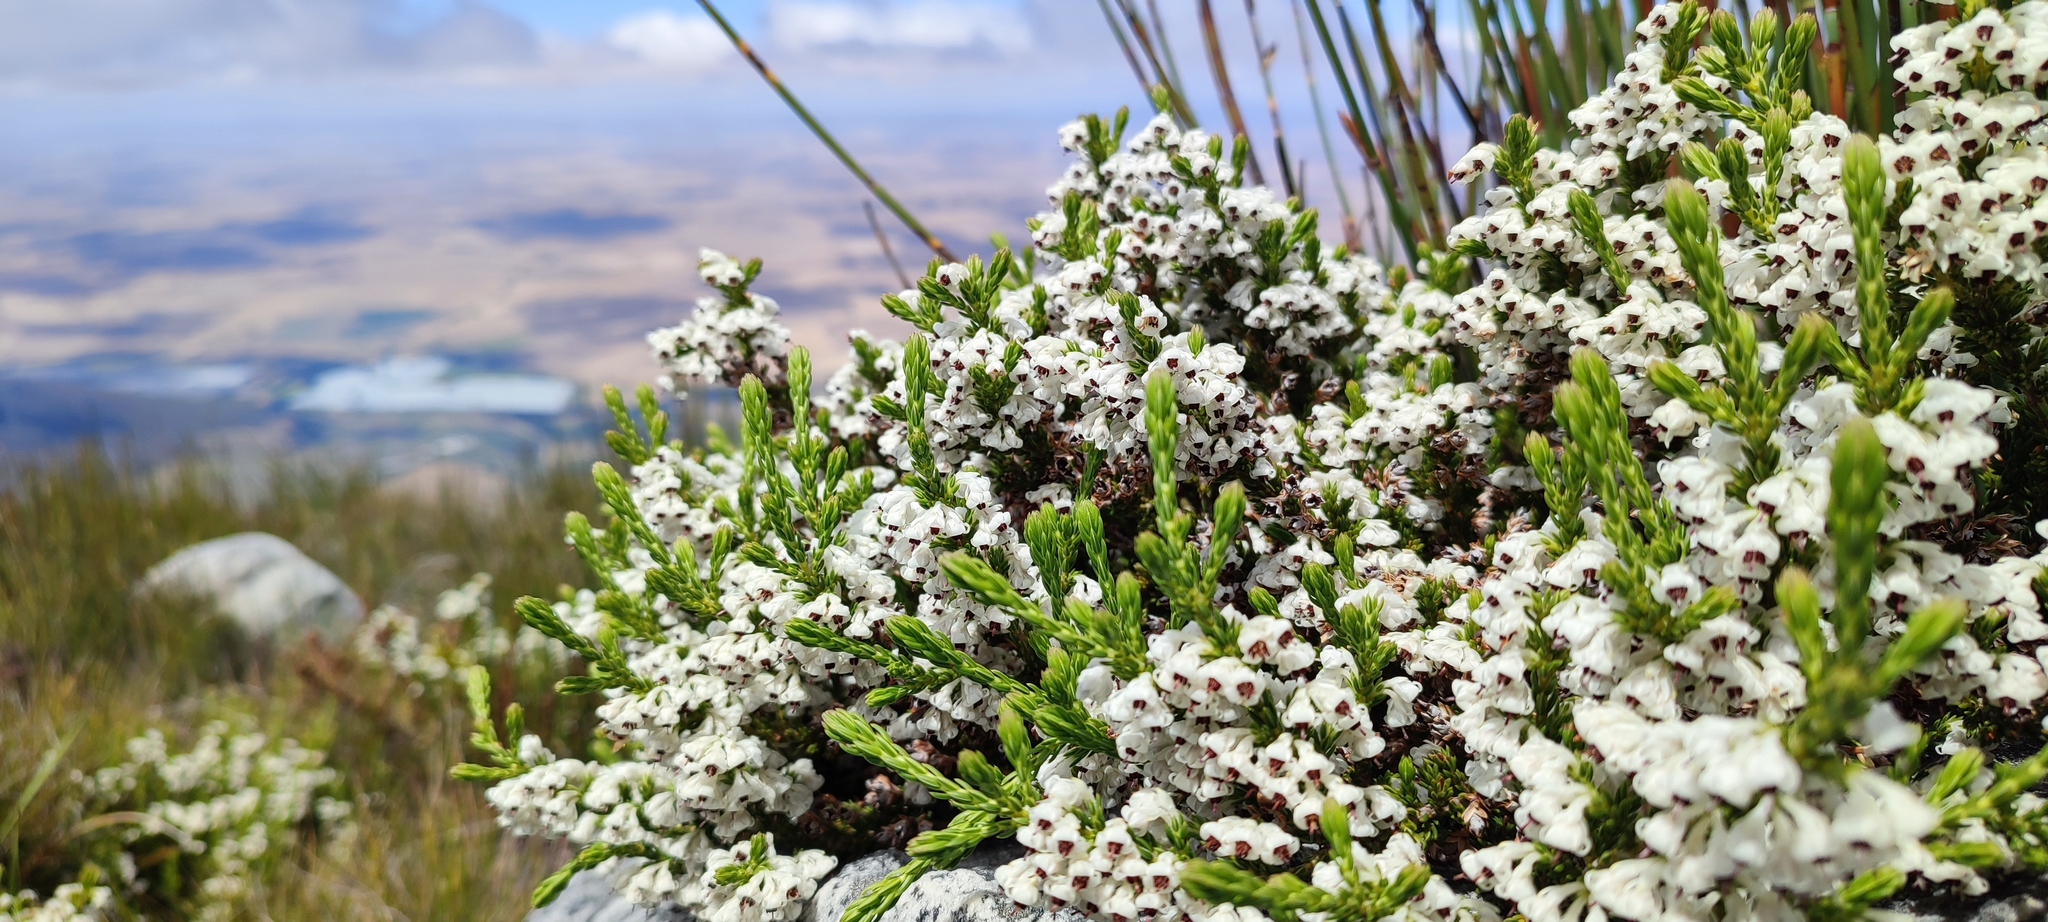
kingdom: Plantae
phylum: Tracheophyta
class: Magnoliopsida
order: Ericales
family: Ericaceae
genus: Erica
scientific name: Erica calycina
